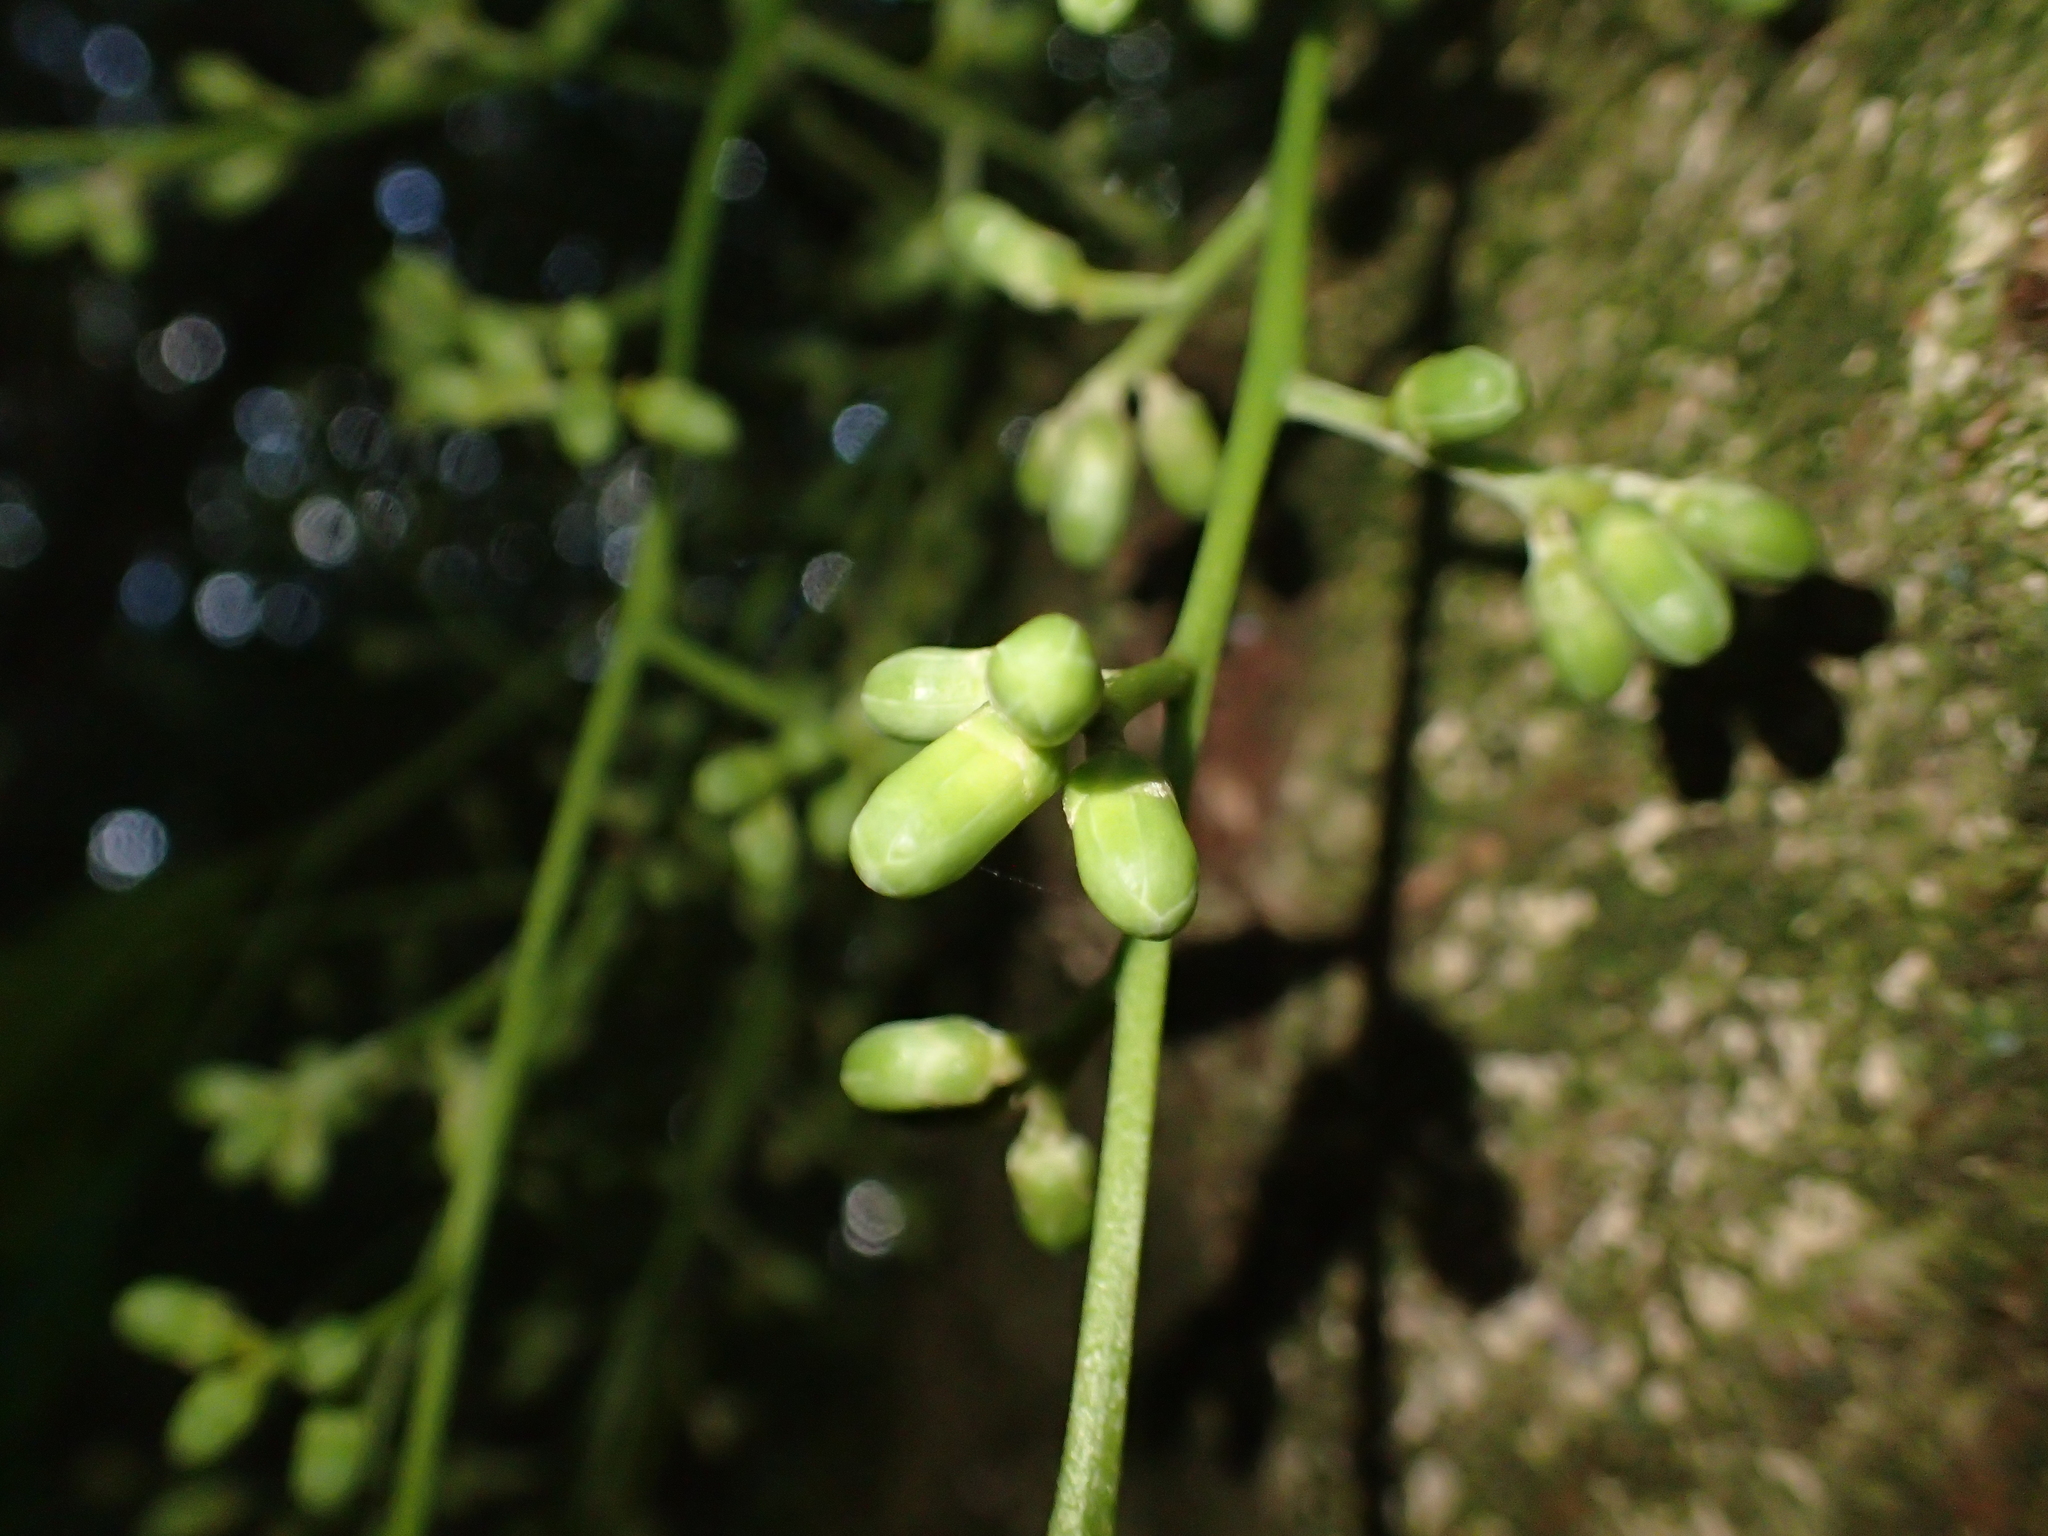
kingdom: Plantae
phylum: Tracheophyta
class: Magnoliopsida
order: Sapindales
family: Meliaceae
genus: Didymocheton
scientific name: Didymocheton spectabilis
